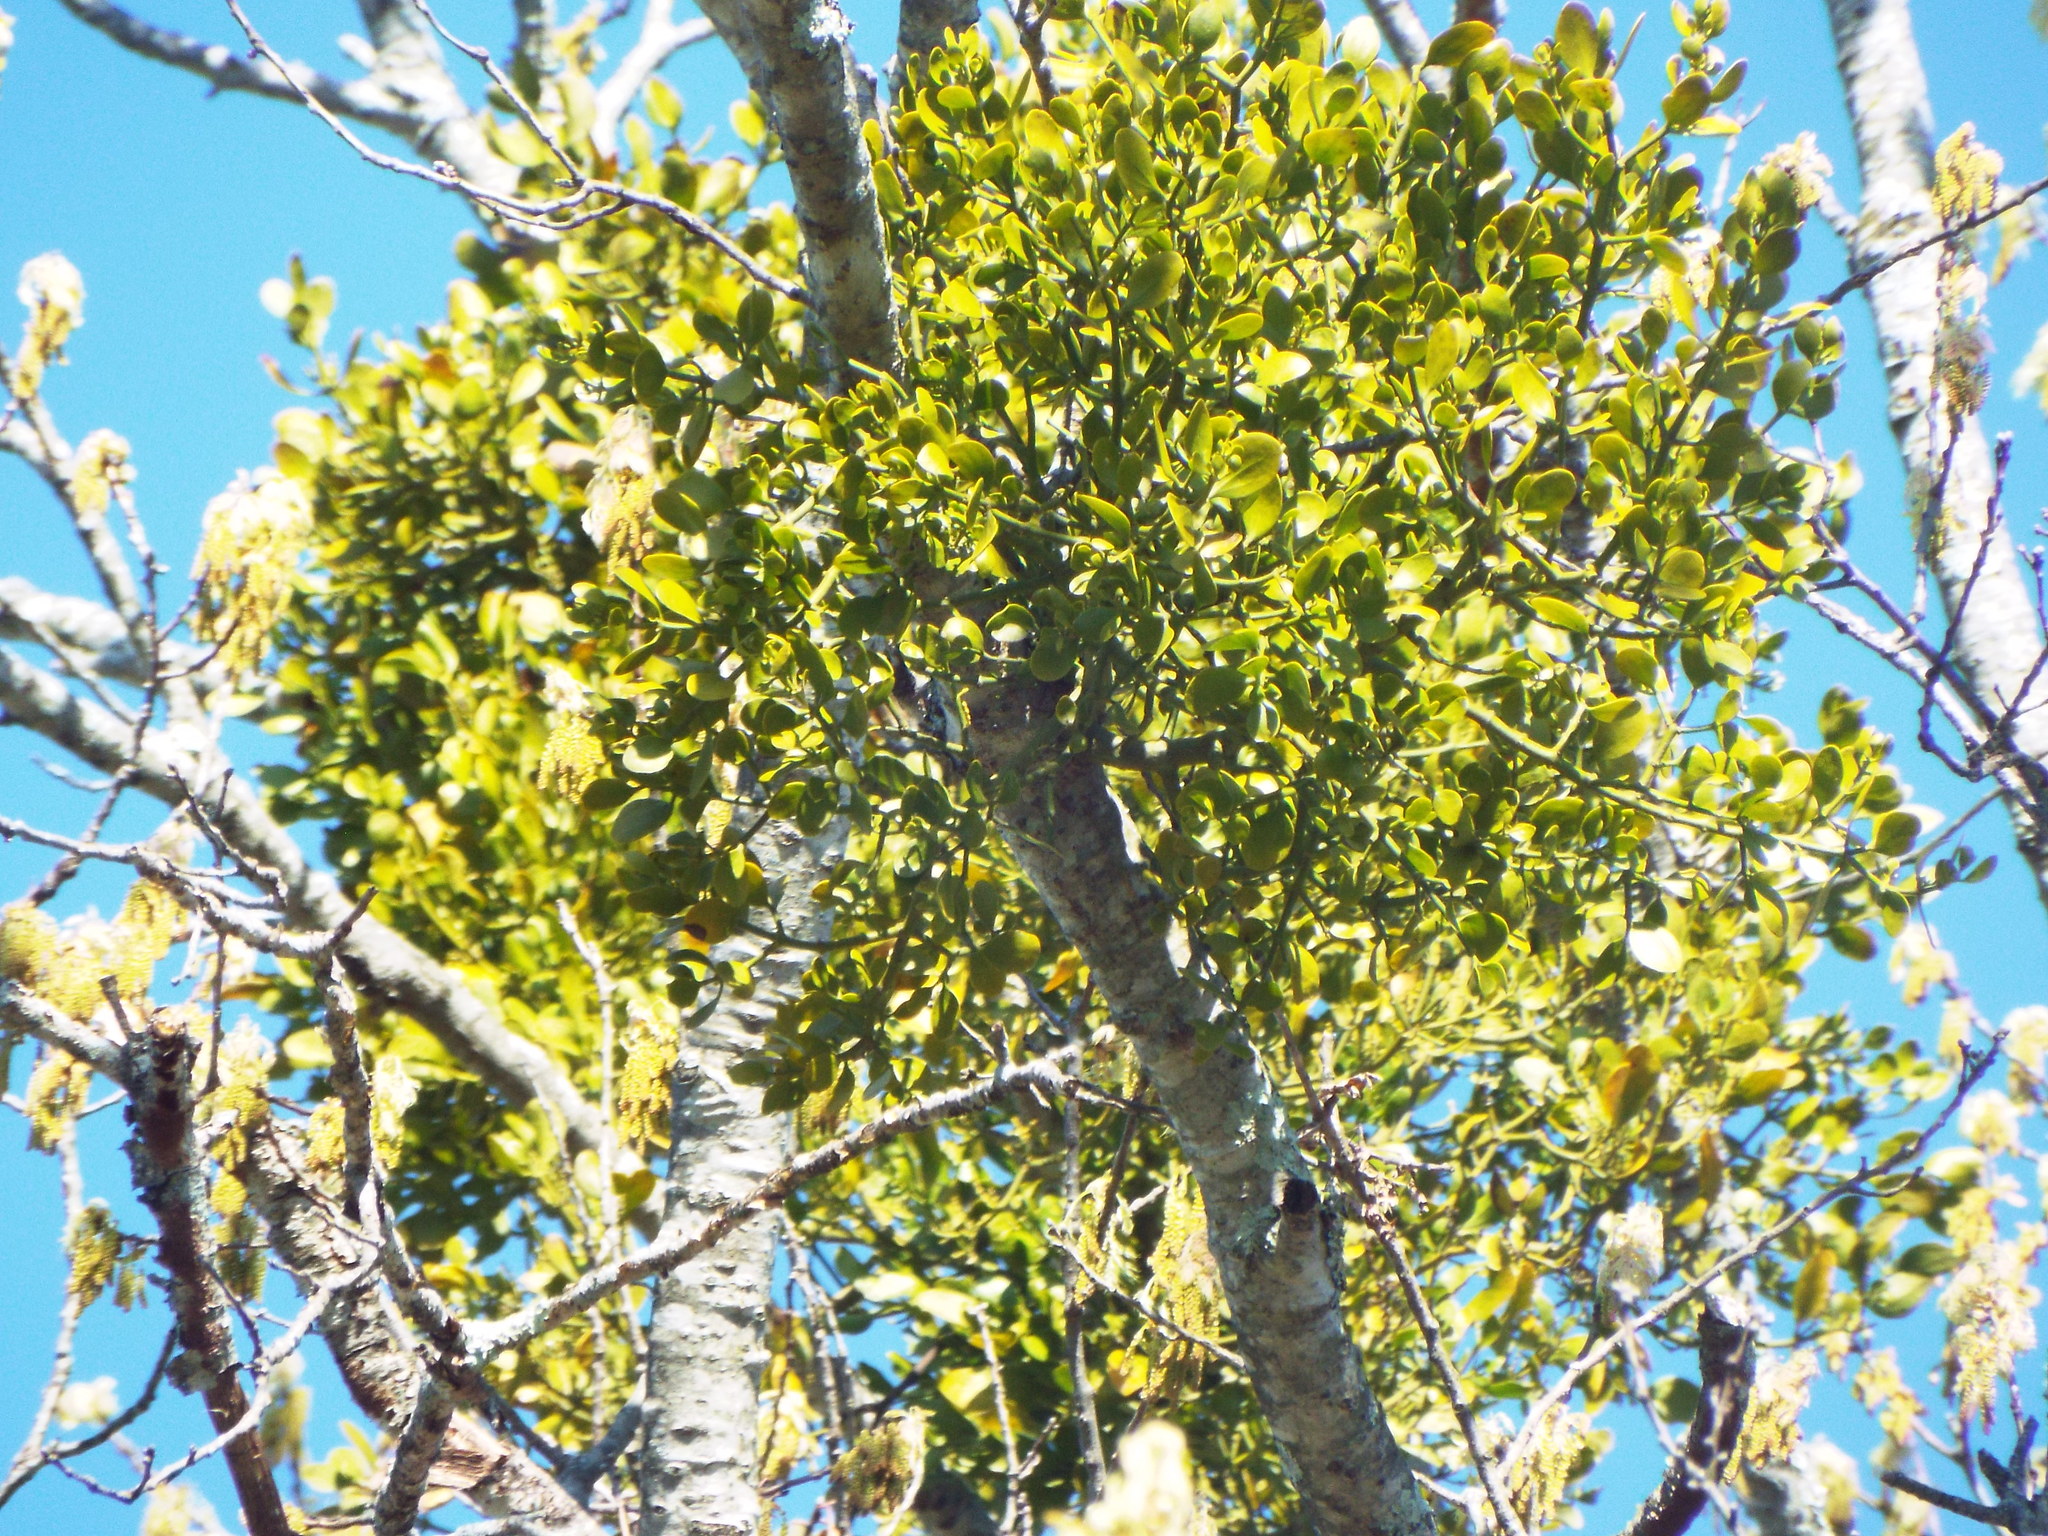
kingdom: Plantae
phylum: Tracheophyta
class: Magnoliopsida
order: Santalales
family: Viscaceae
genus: Phoradendron
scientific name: Phoradendron leucarpum
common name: Pacific mistletoe
